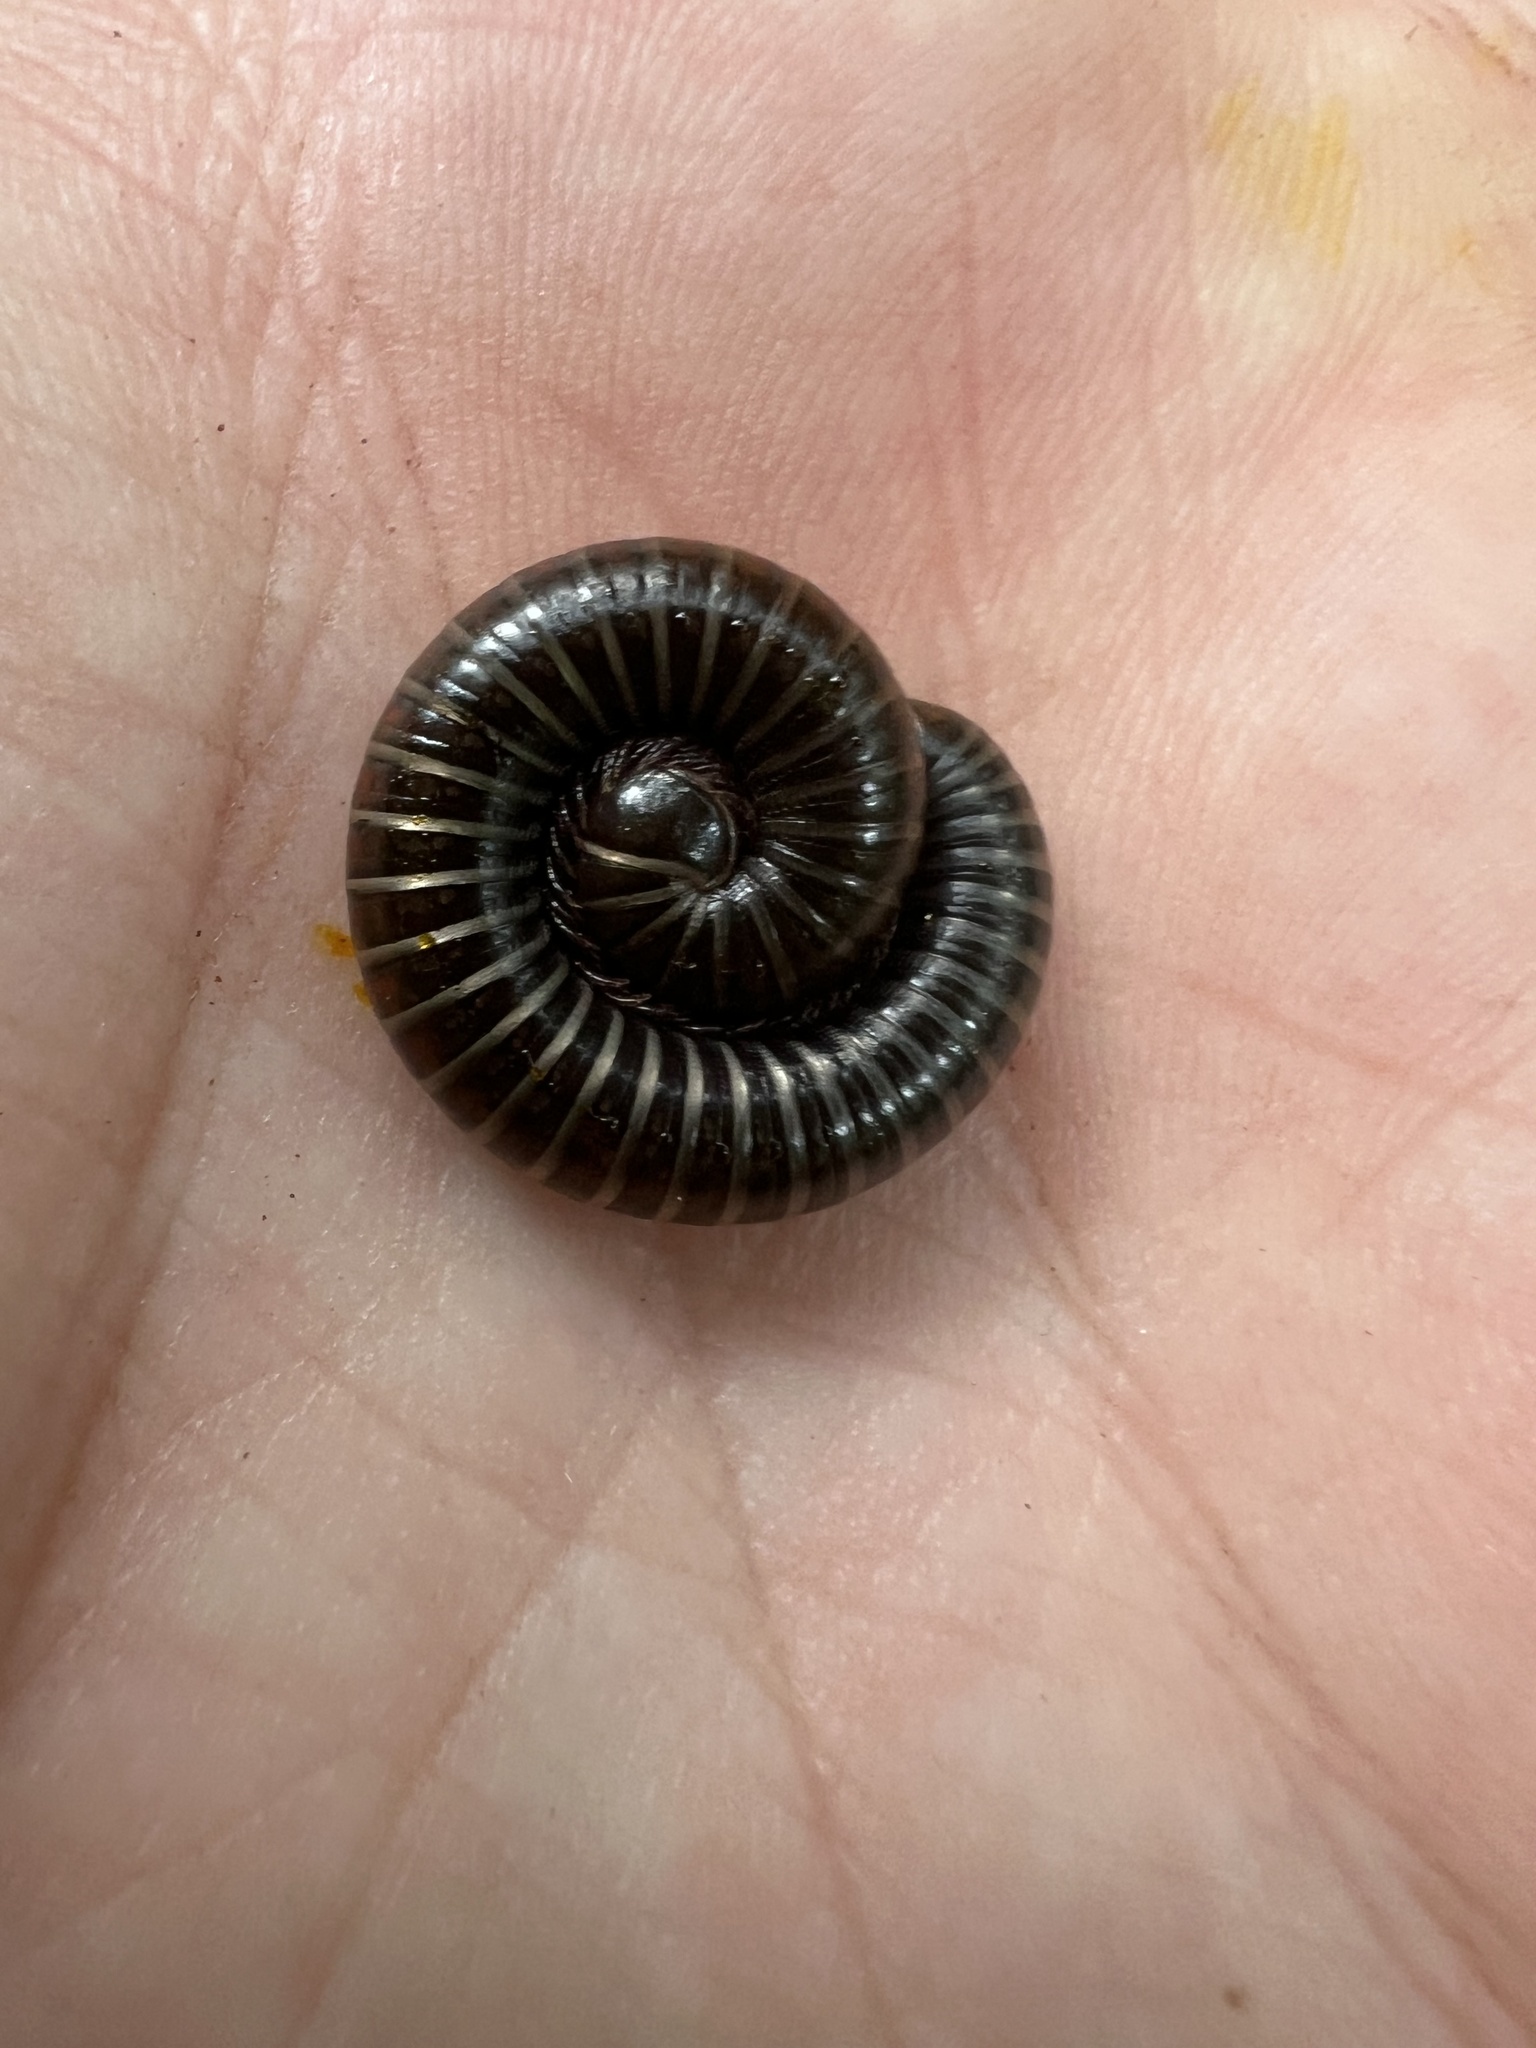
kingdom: Animalia
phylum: Arthropoda
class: Diplopoda
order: Spirostreptida
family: Choctellidae
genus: Choctella
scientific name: Choctella cumminsi
